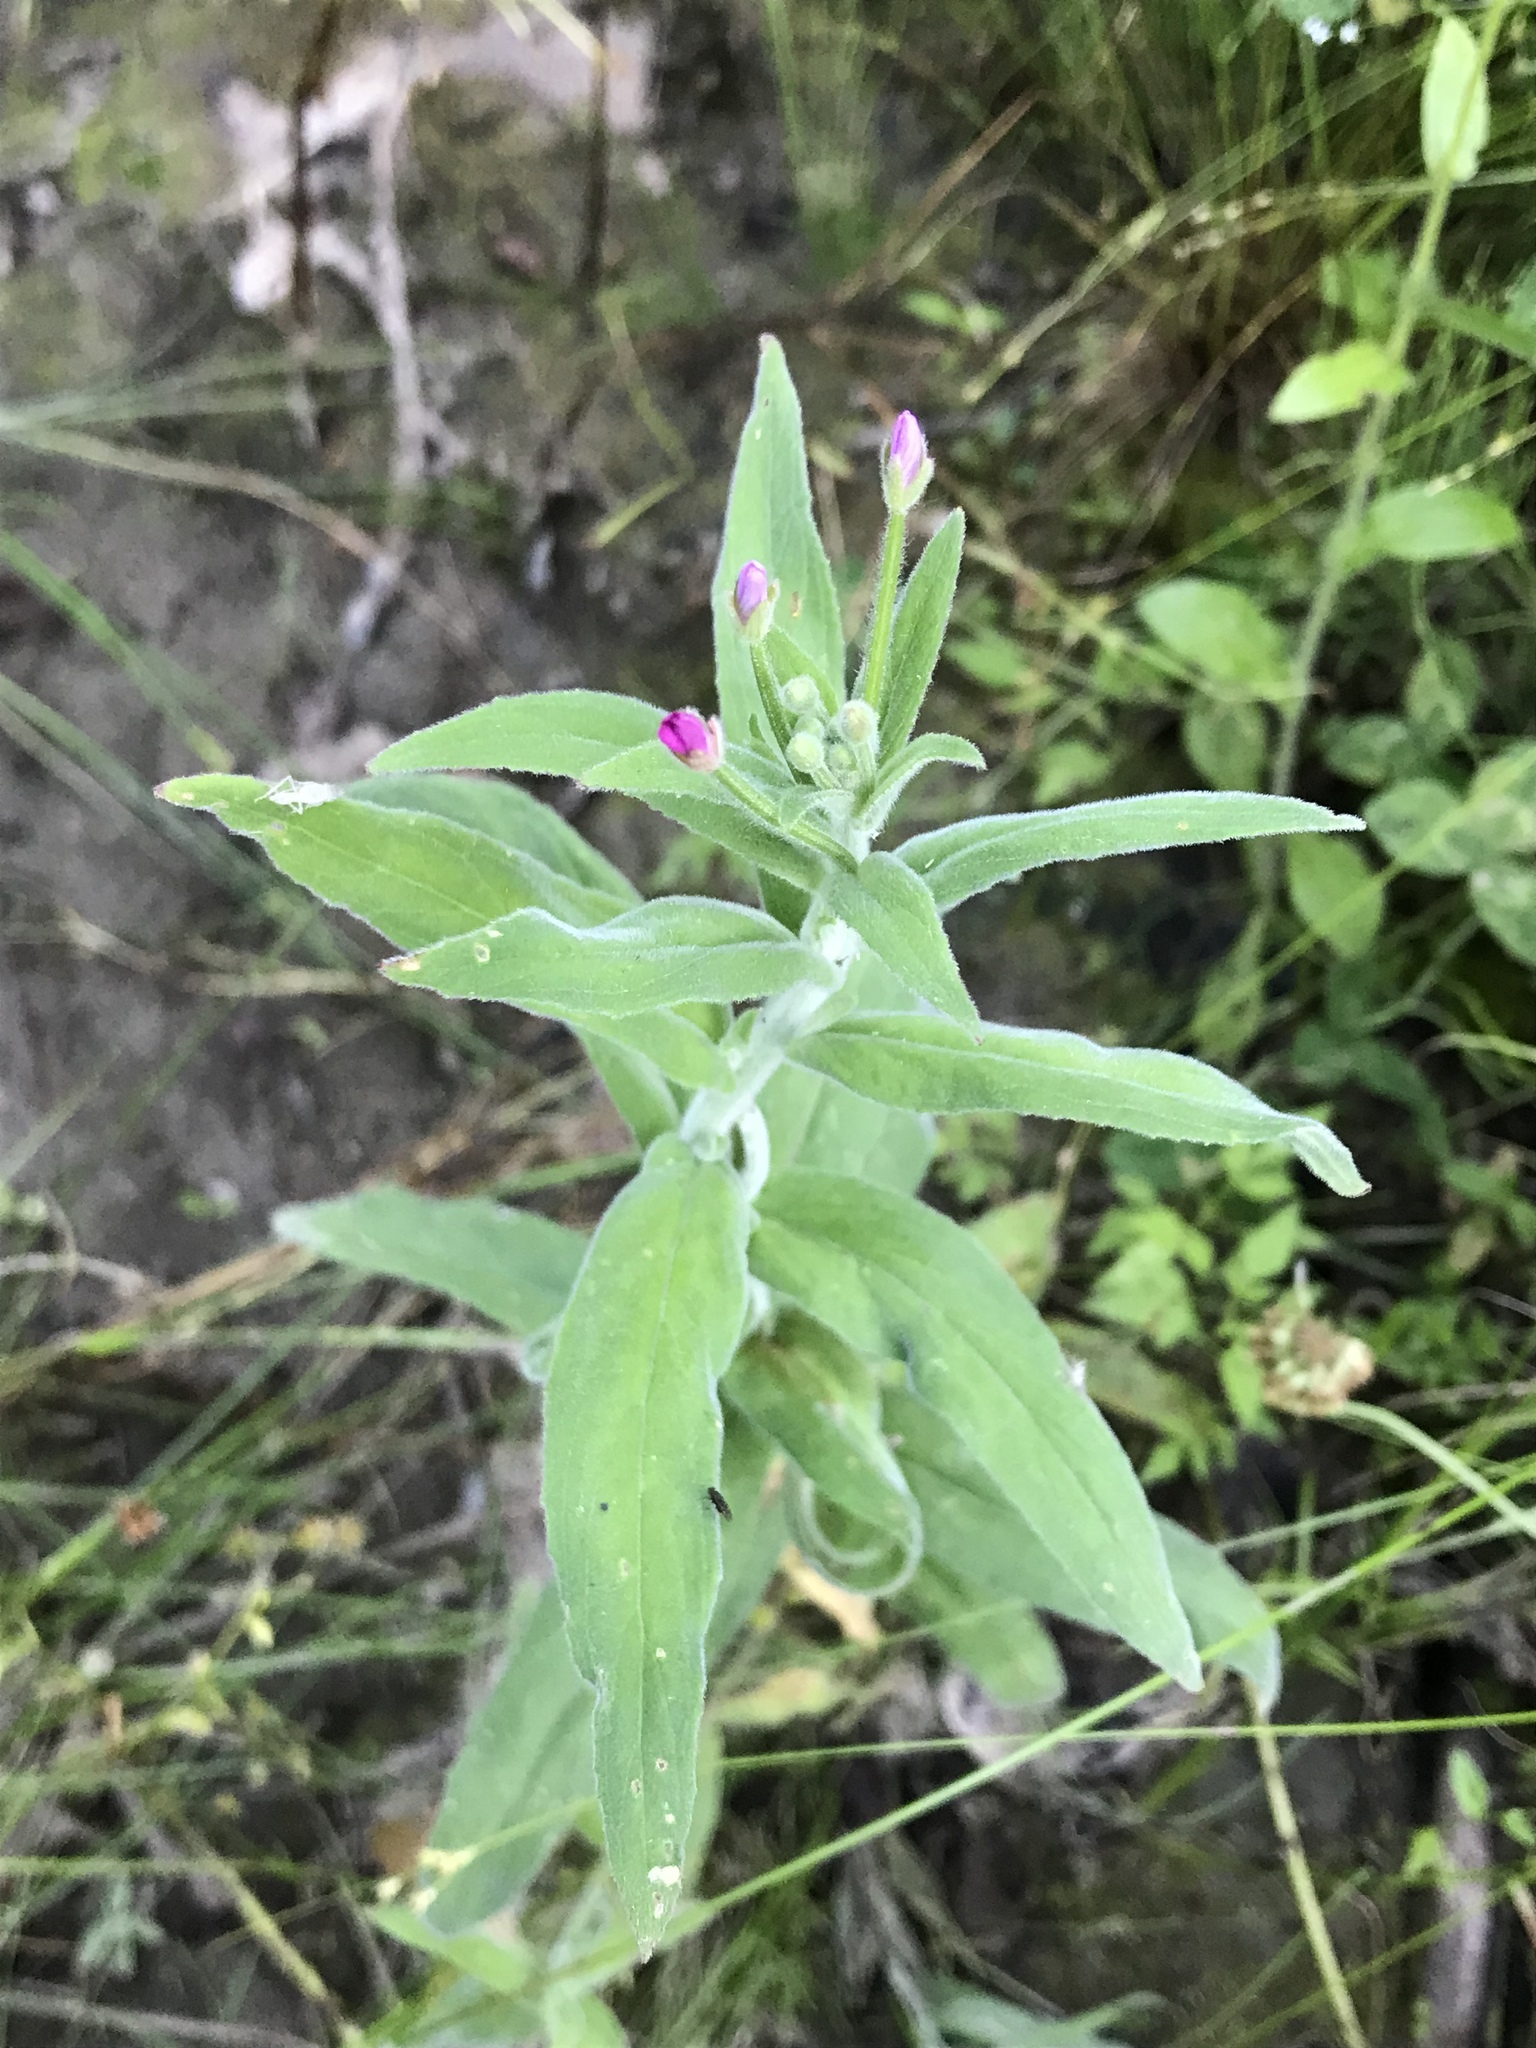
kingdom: Plantae
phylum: Tracheophyta
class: Magnoliopsida
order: Myrtales
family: Onagraceae
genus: Epilobium
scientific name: Epilobium parviflorum
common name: Hoary willowherb
